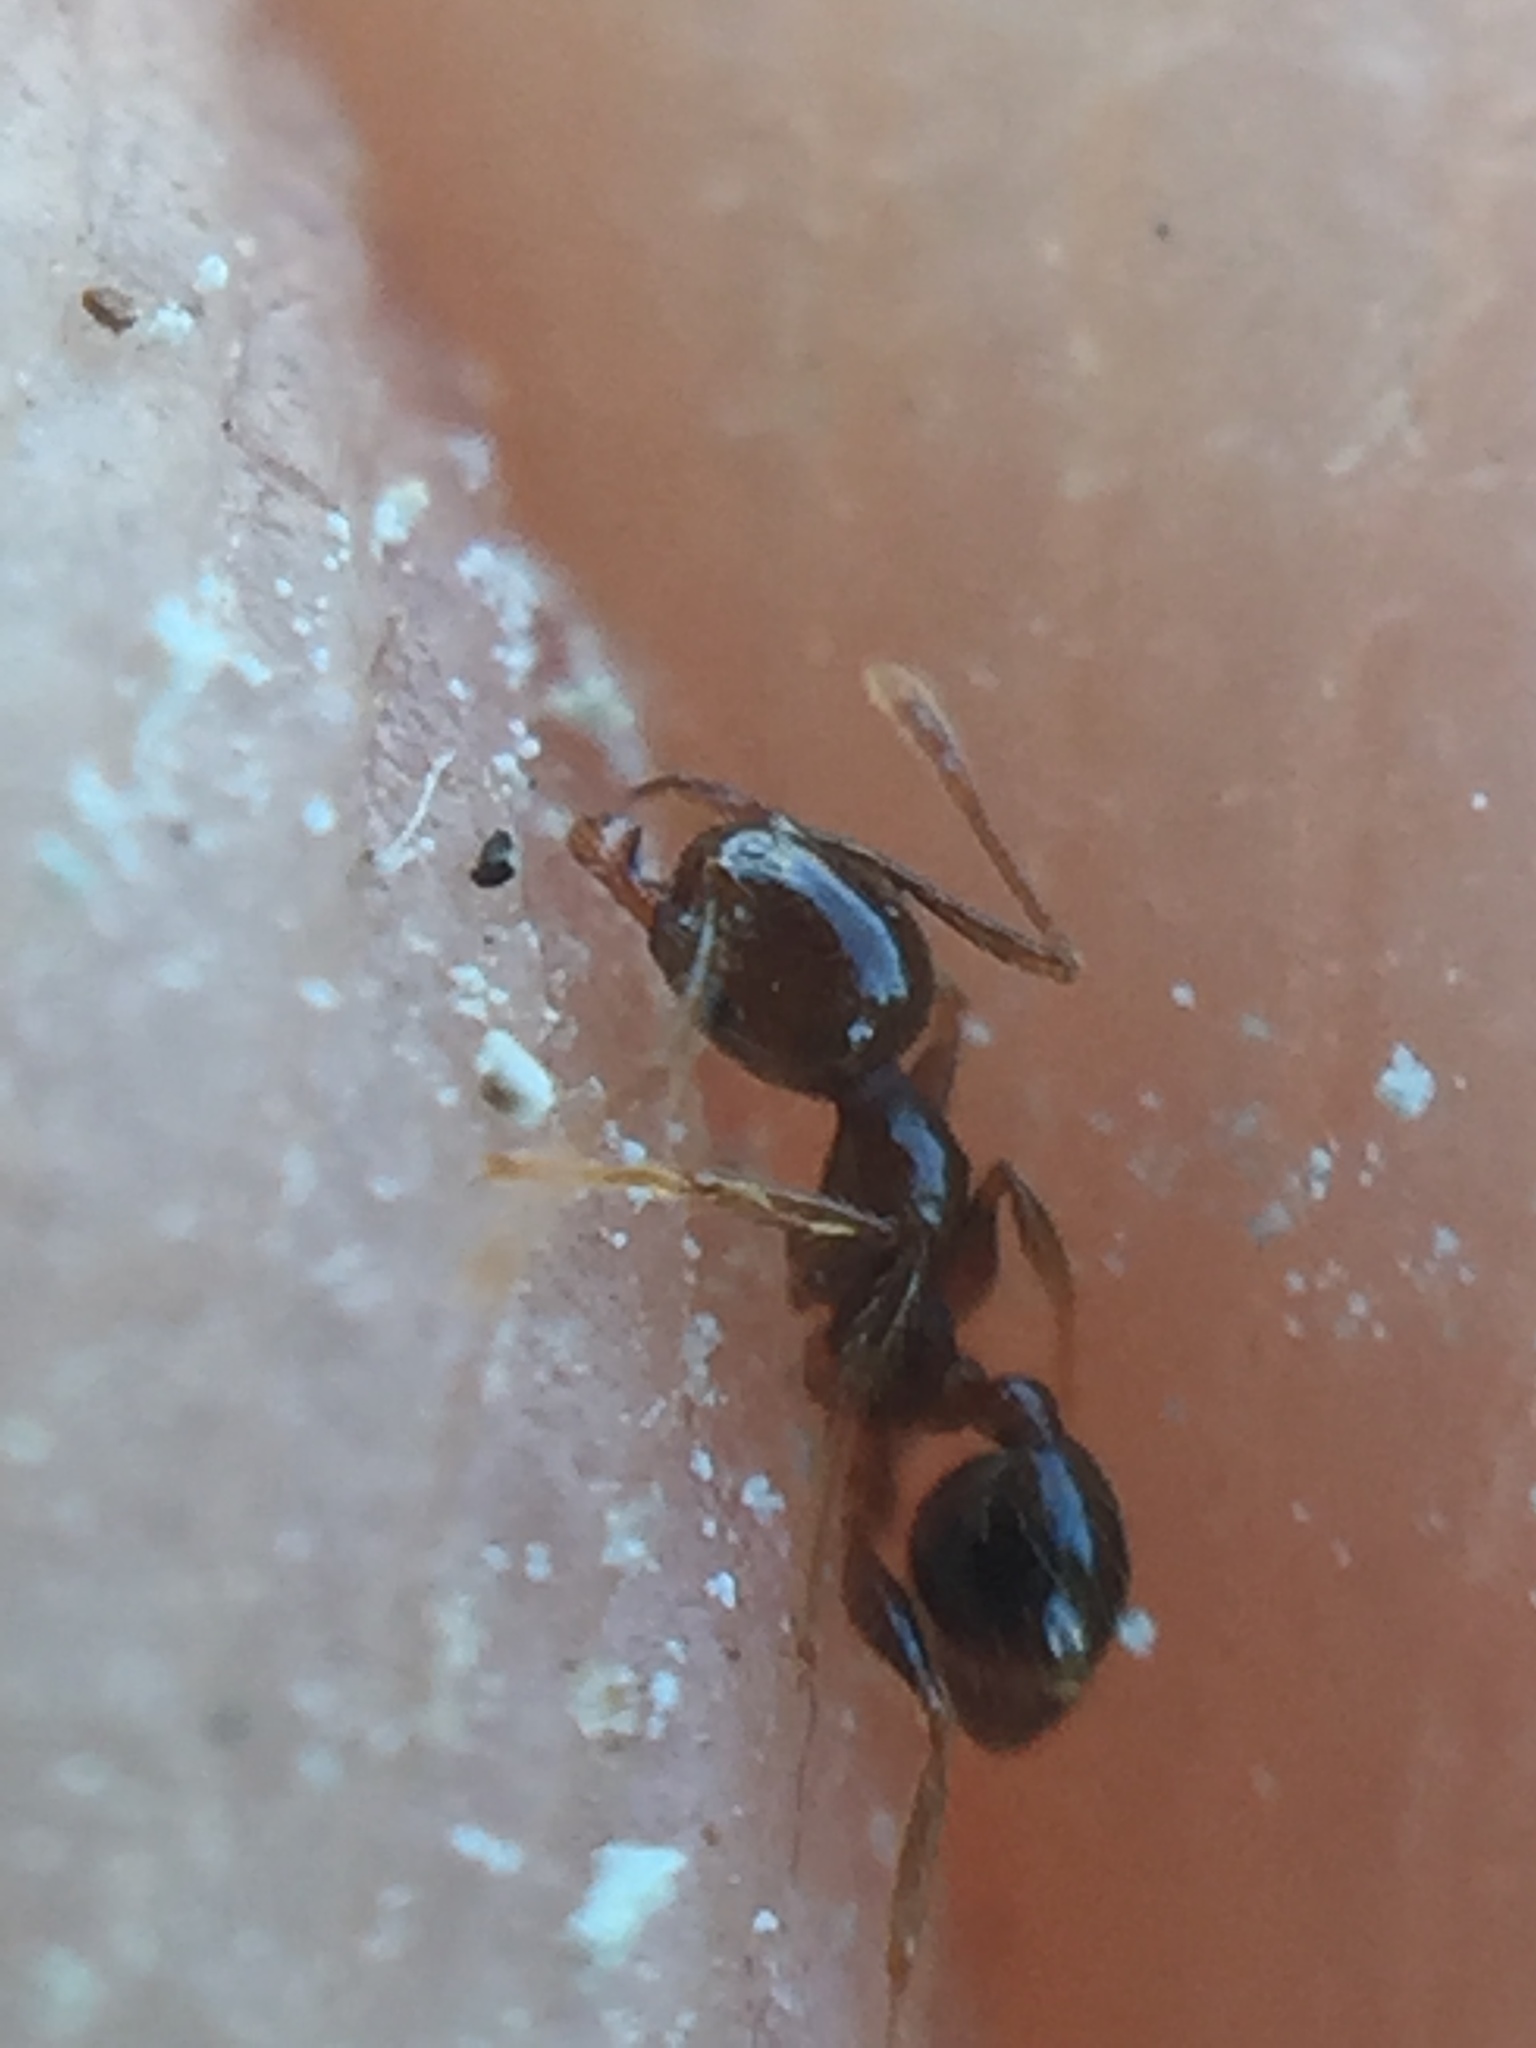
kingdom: Animalia
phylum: Arthropoda
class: Insecta
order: Hymenoptera
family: Formicidae
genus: Pheidole
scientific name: Pheidole megacephala
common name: Bigheaded ant
